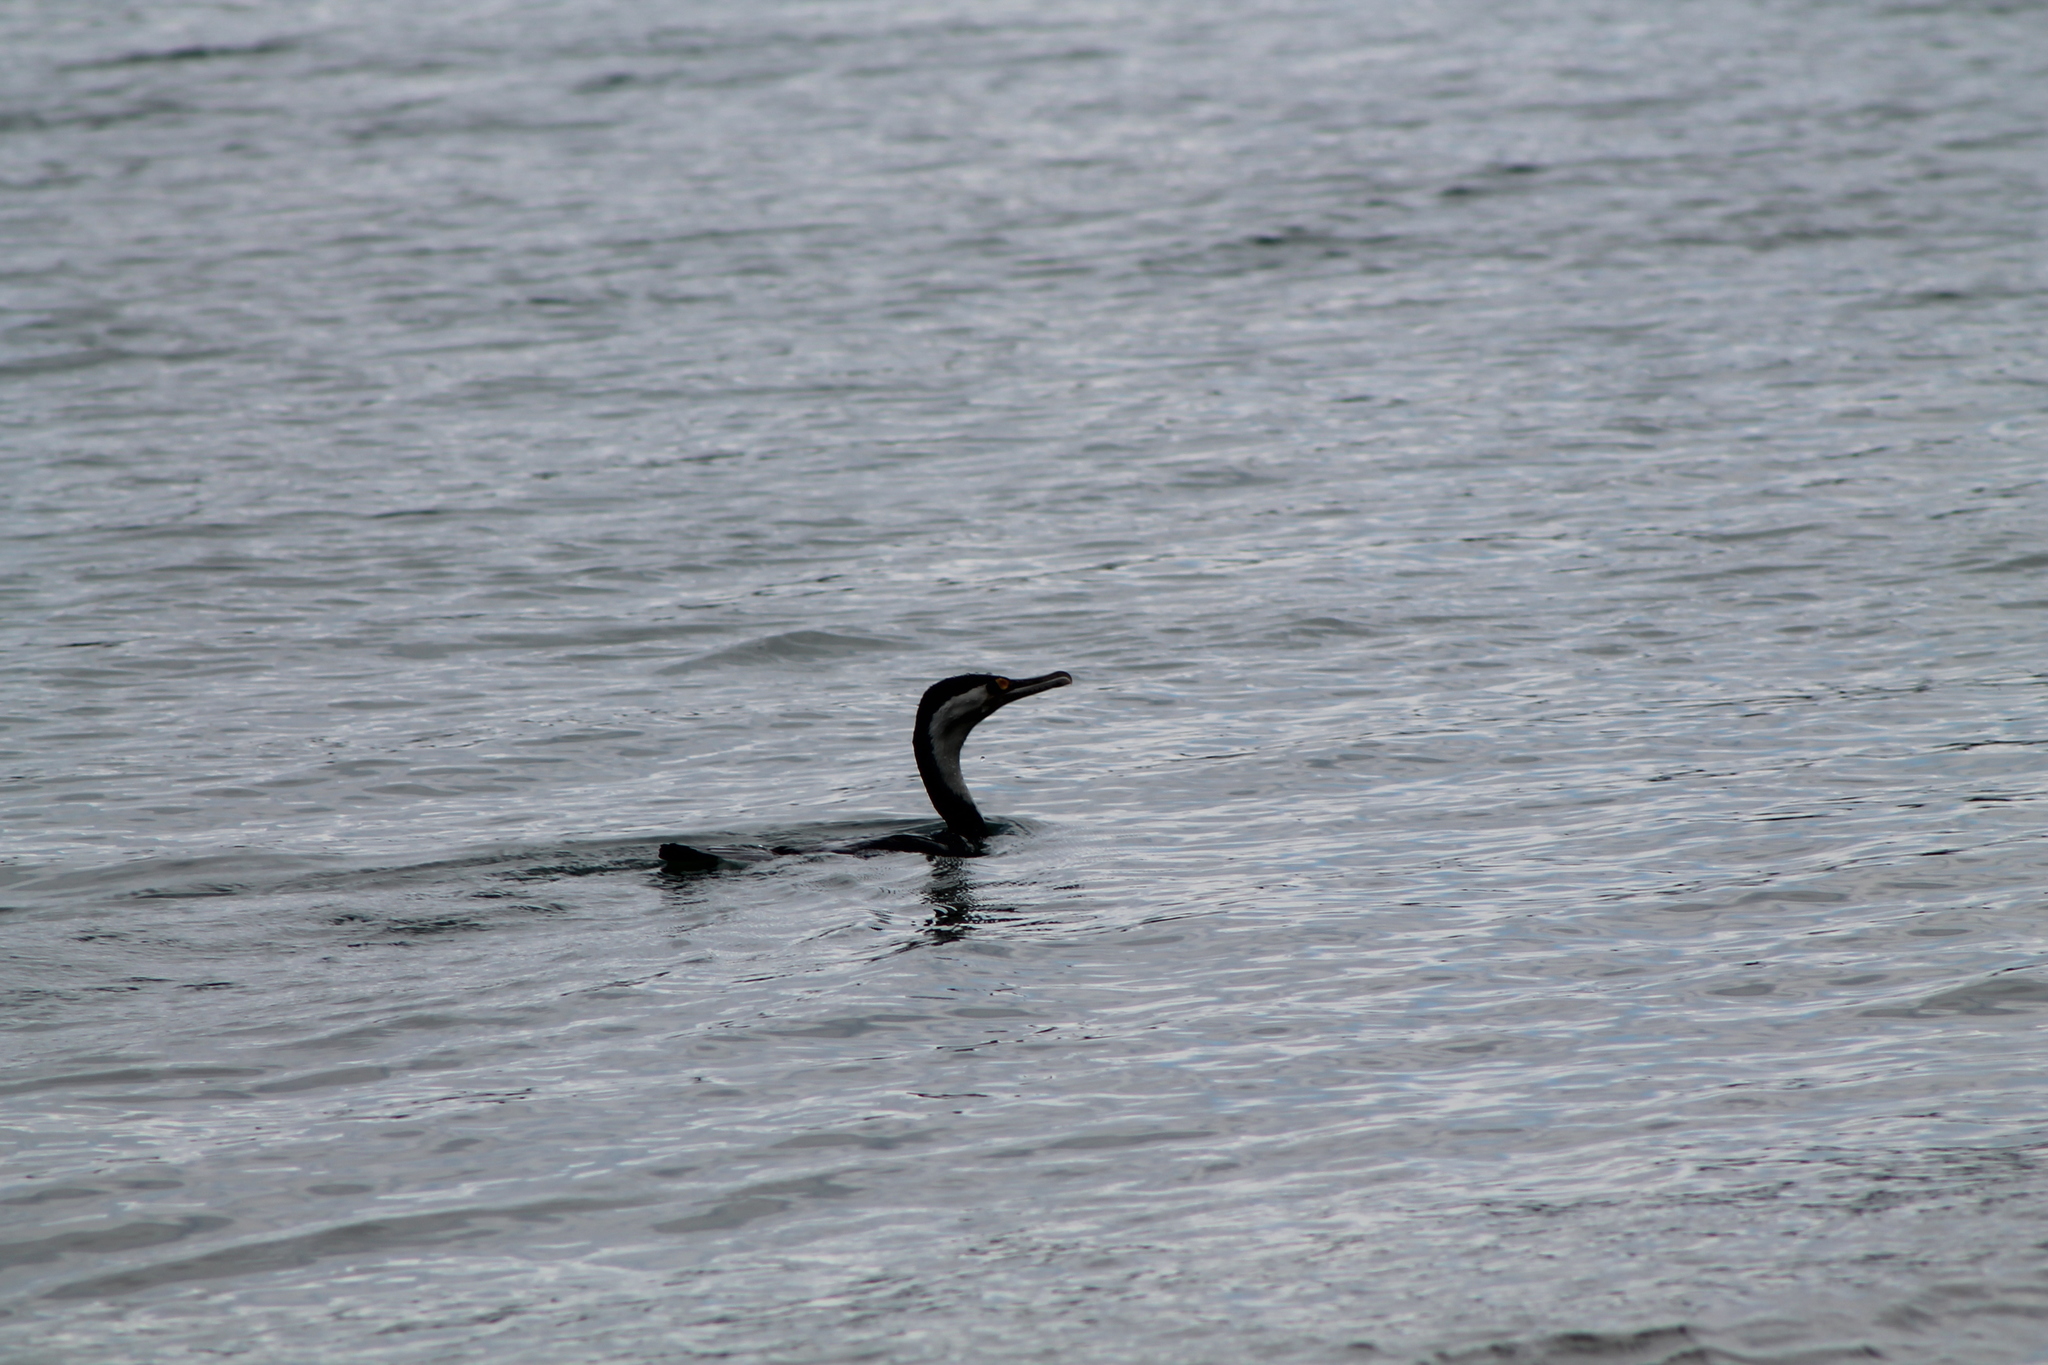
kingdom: Animalia
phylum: Chordata
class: Aves
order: Suliformes
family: Phalacrocoracidae
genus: Phalacrocorax
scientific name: Phalacrocorax varius
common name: Pied cormorant
